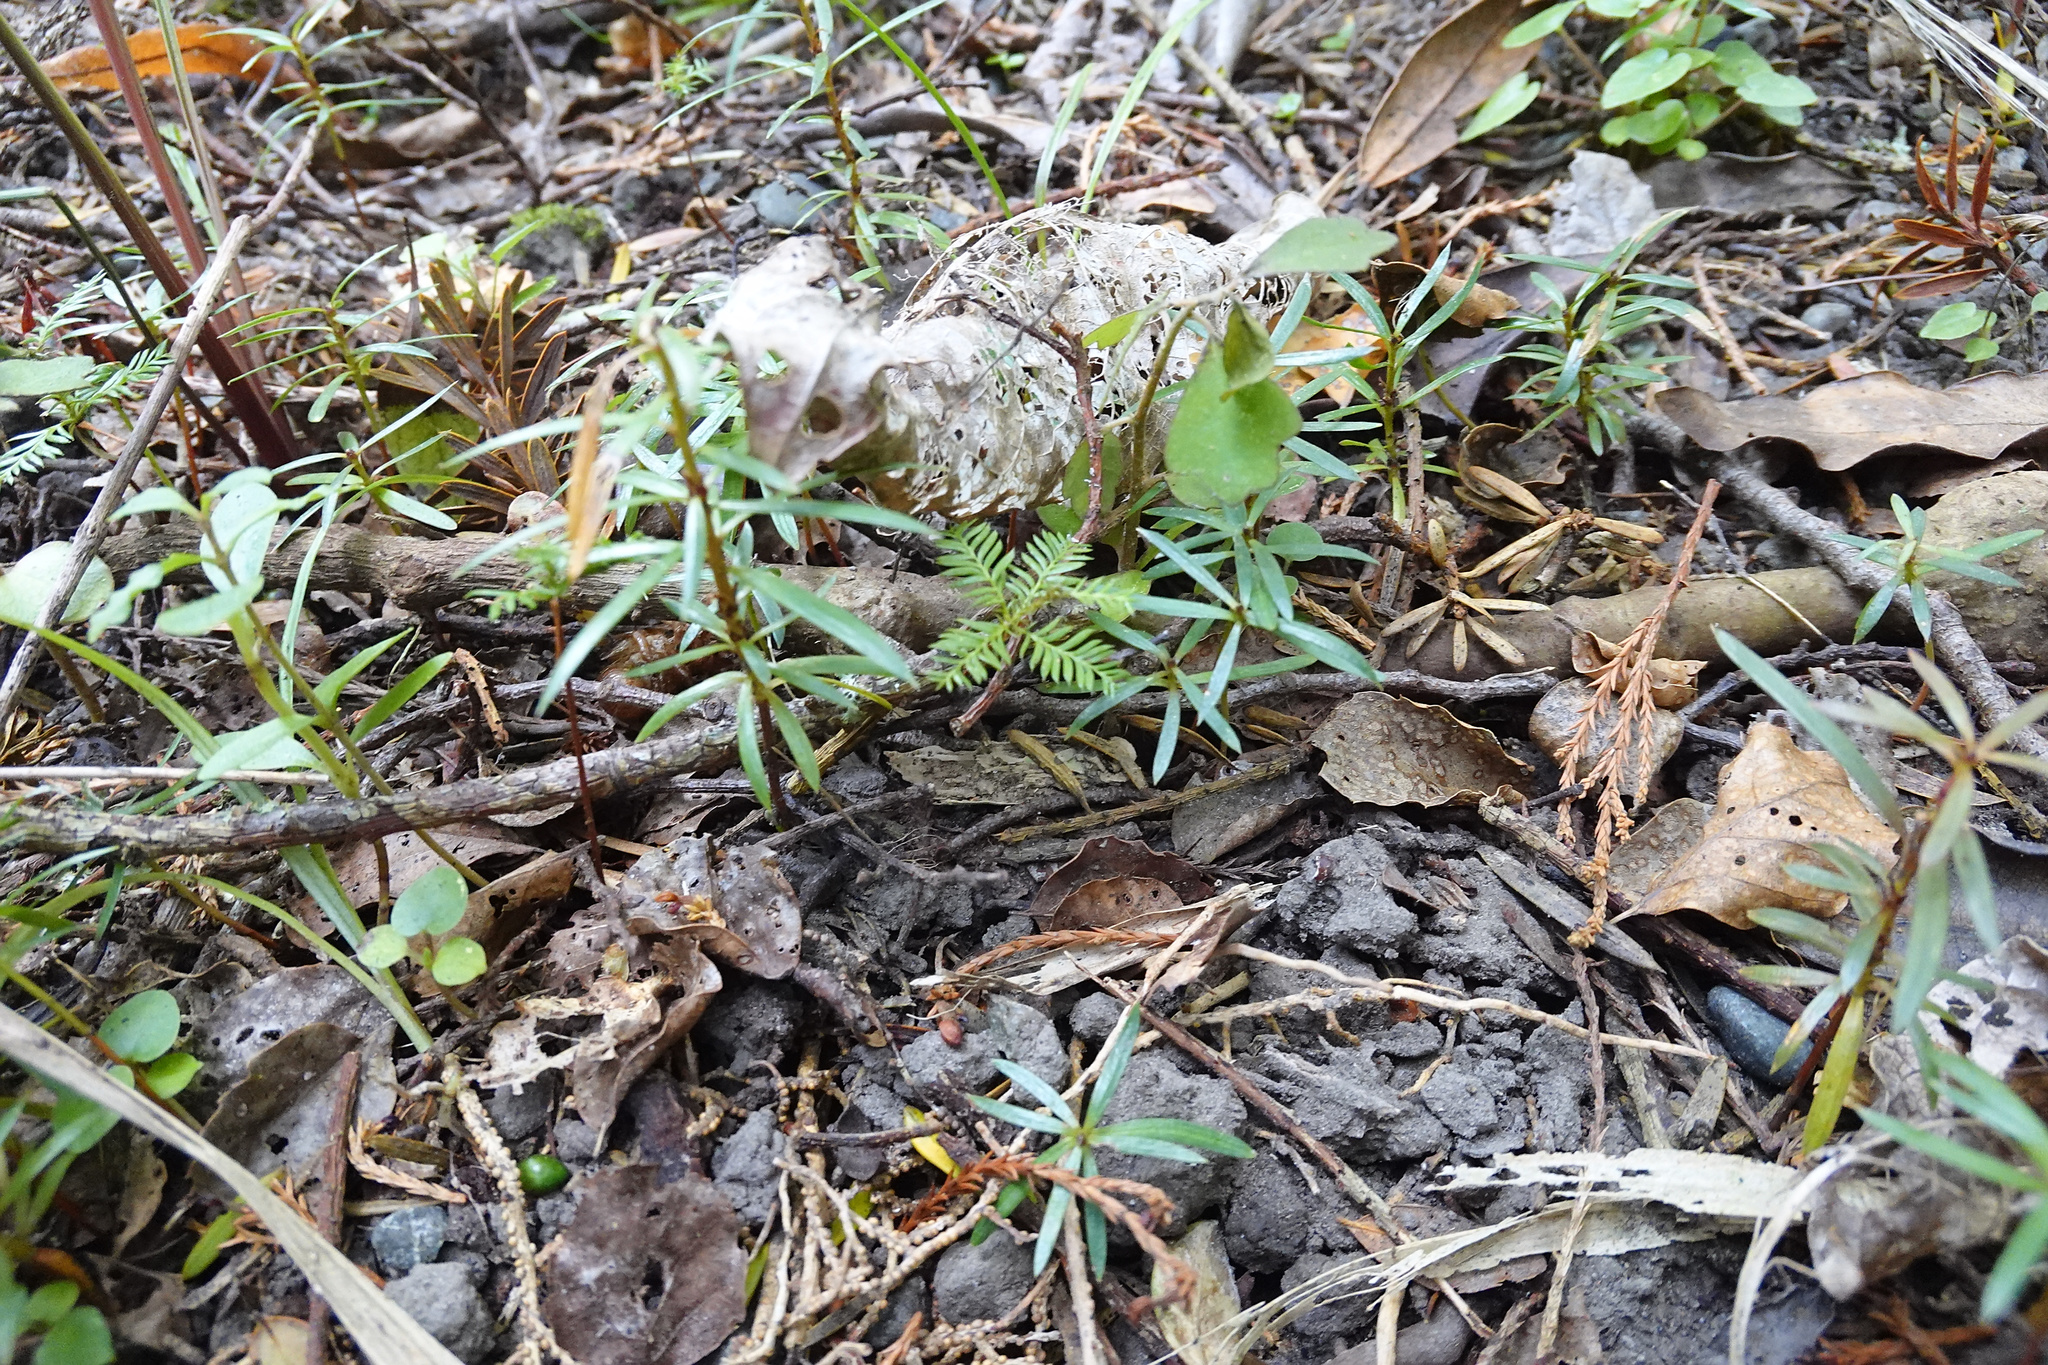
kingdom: Plantae
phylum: Tracheophyta
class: Pinopsida
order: Pinales
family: Podocarpaceae
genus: Dacrycarpus
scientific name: Dacrycarpus dacrydioides
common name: White pine
